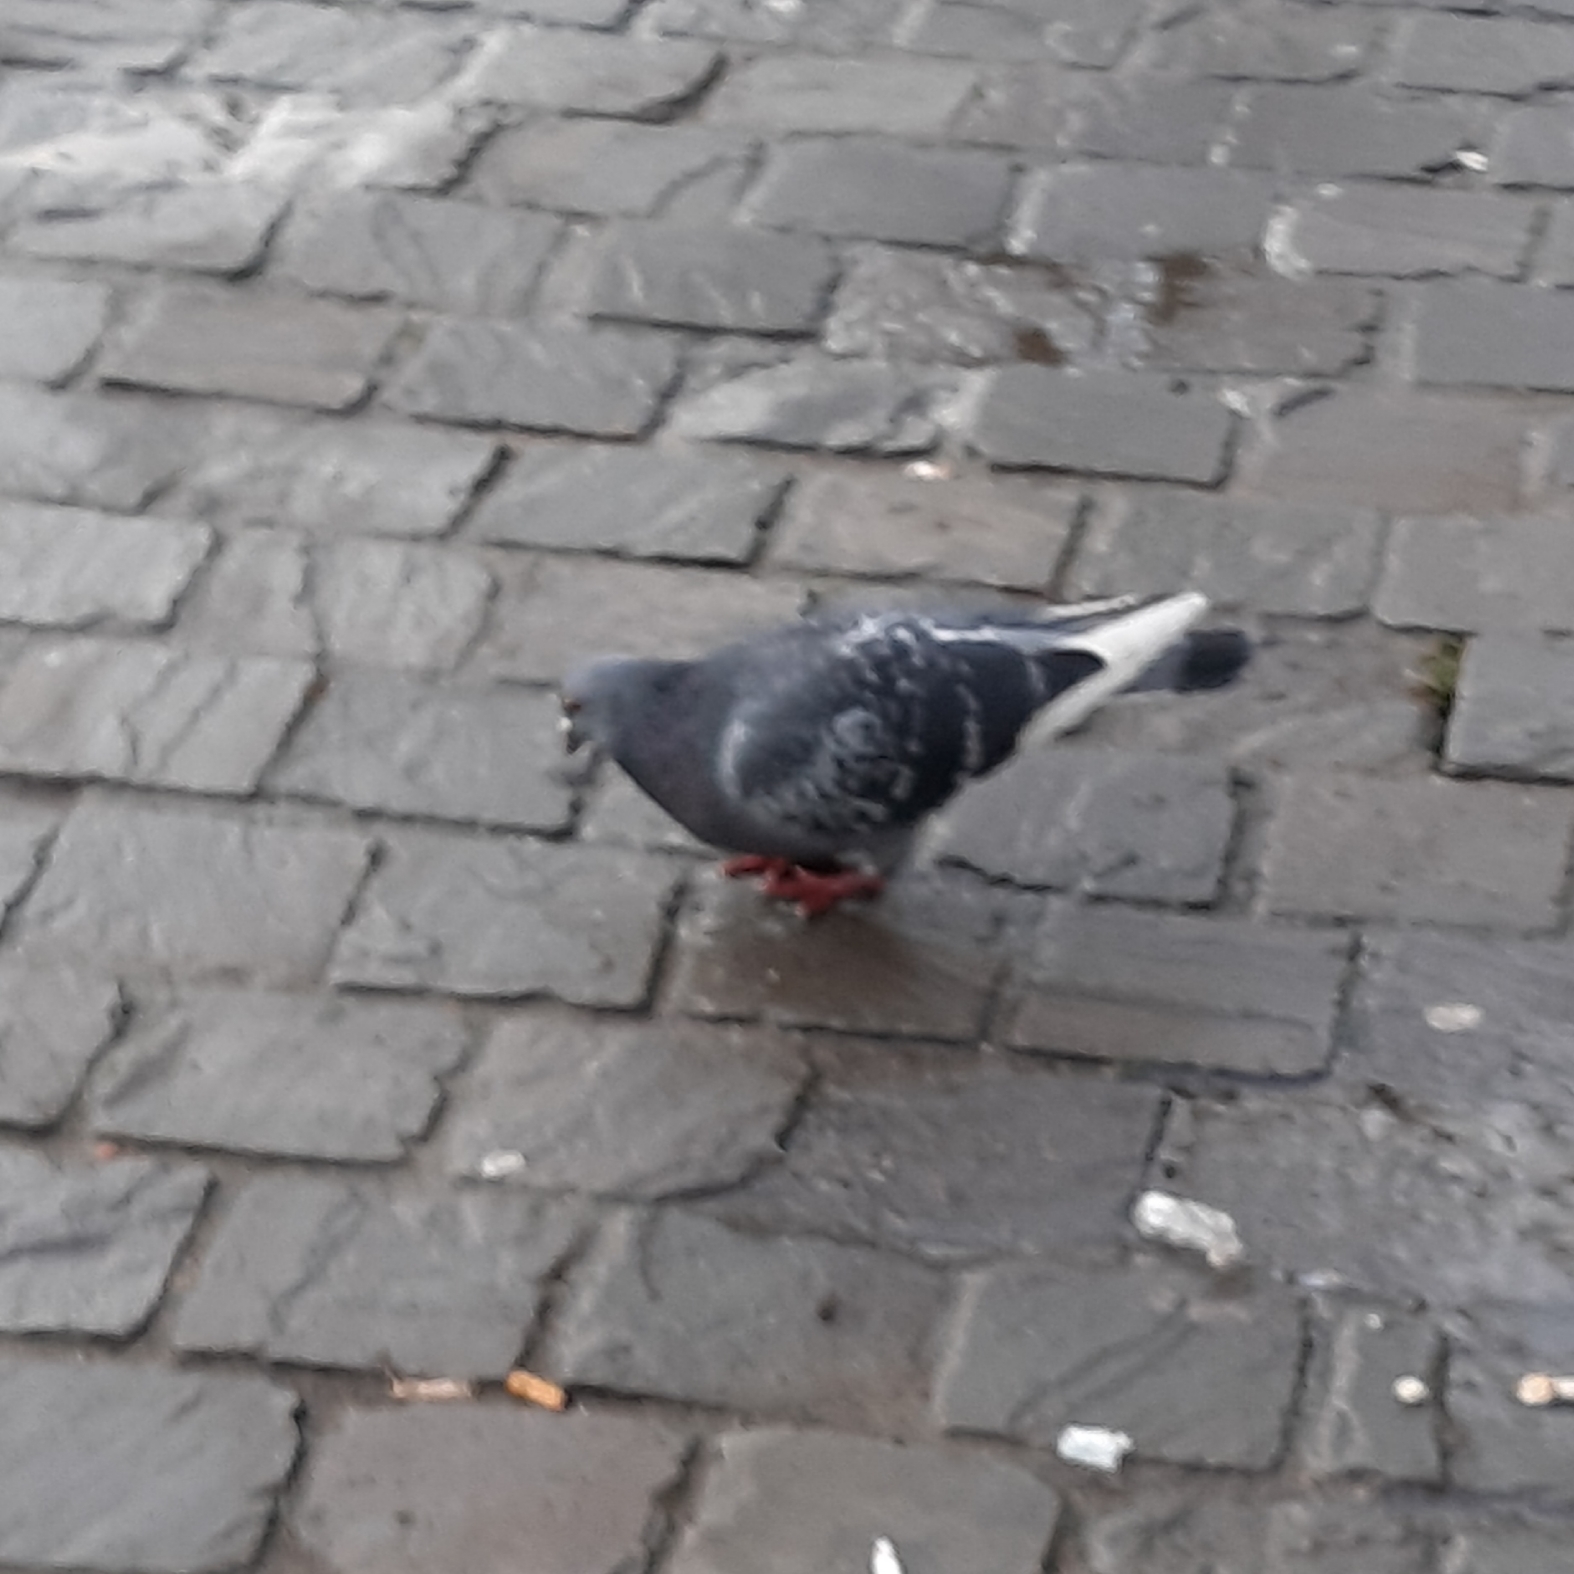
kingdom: Animalia
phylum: Chordata
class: Aves
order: Columbiformes
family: Columbidae
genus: Columba
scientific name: Columba livia
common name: Rock pigeon
